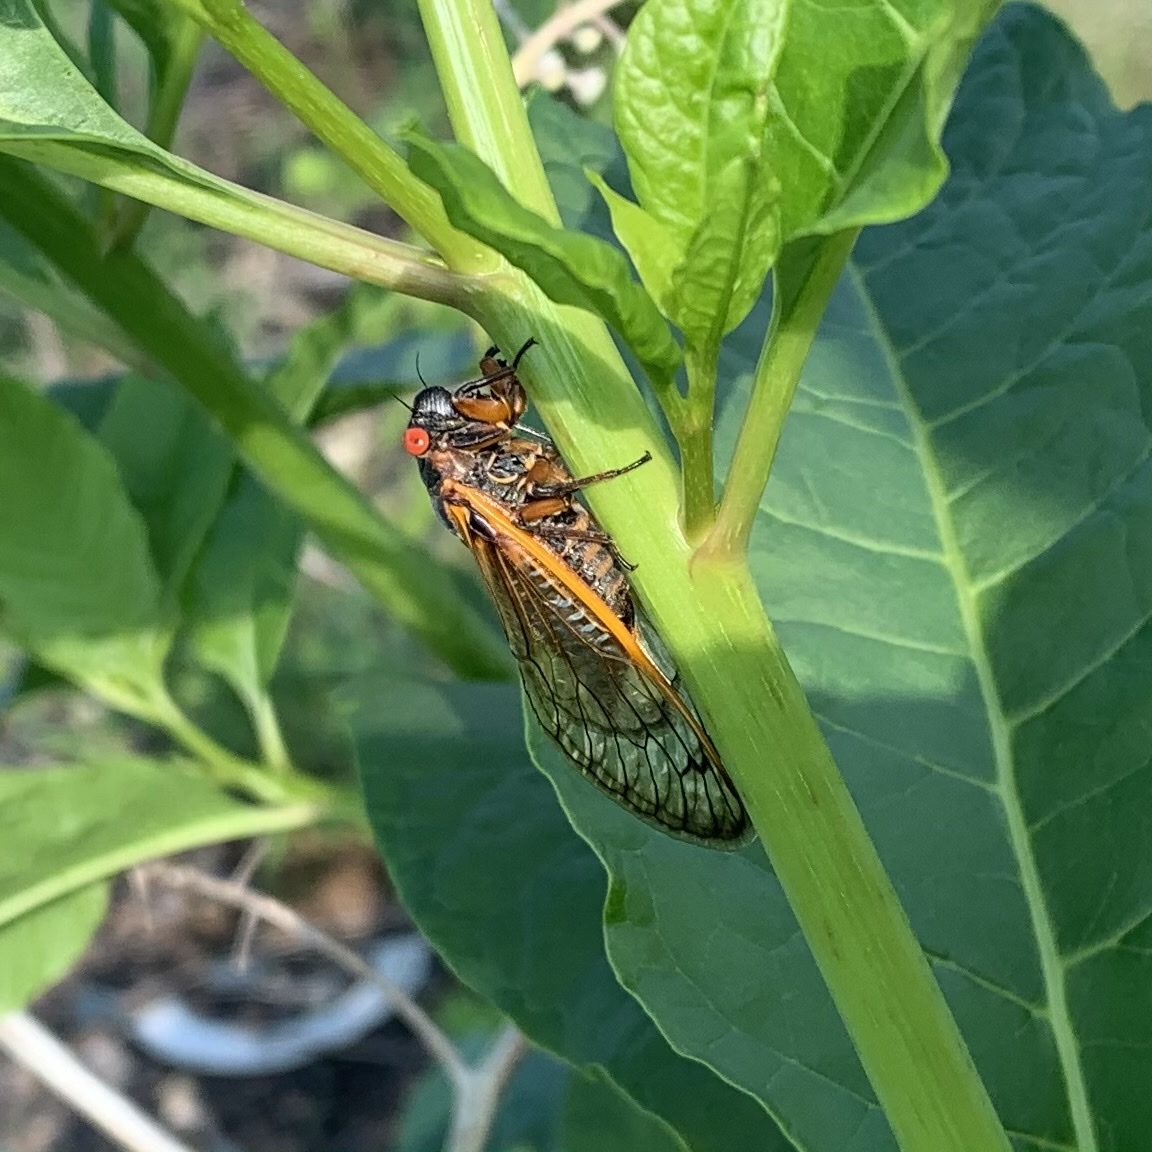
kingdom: Animalia
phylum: Arthropoda
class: Insecta
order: Hemiptera
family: Cicadidae
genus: Magicicada
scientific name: Magicicada septendecim
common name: Periodical cicada
